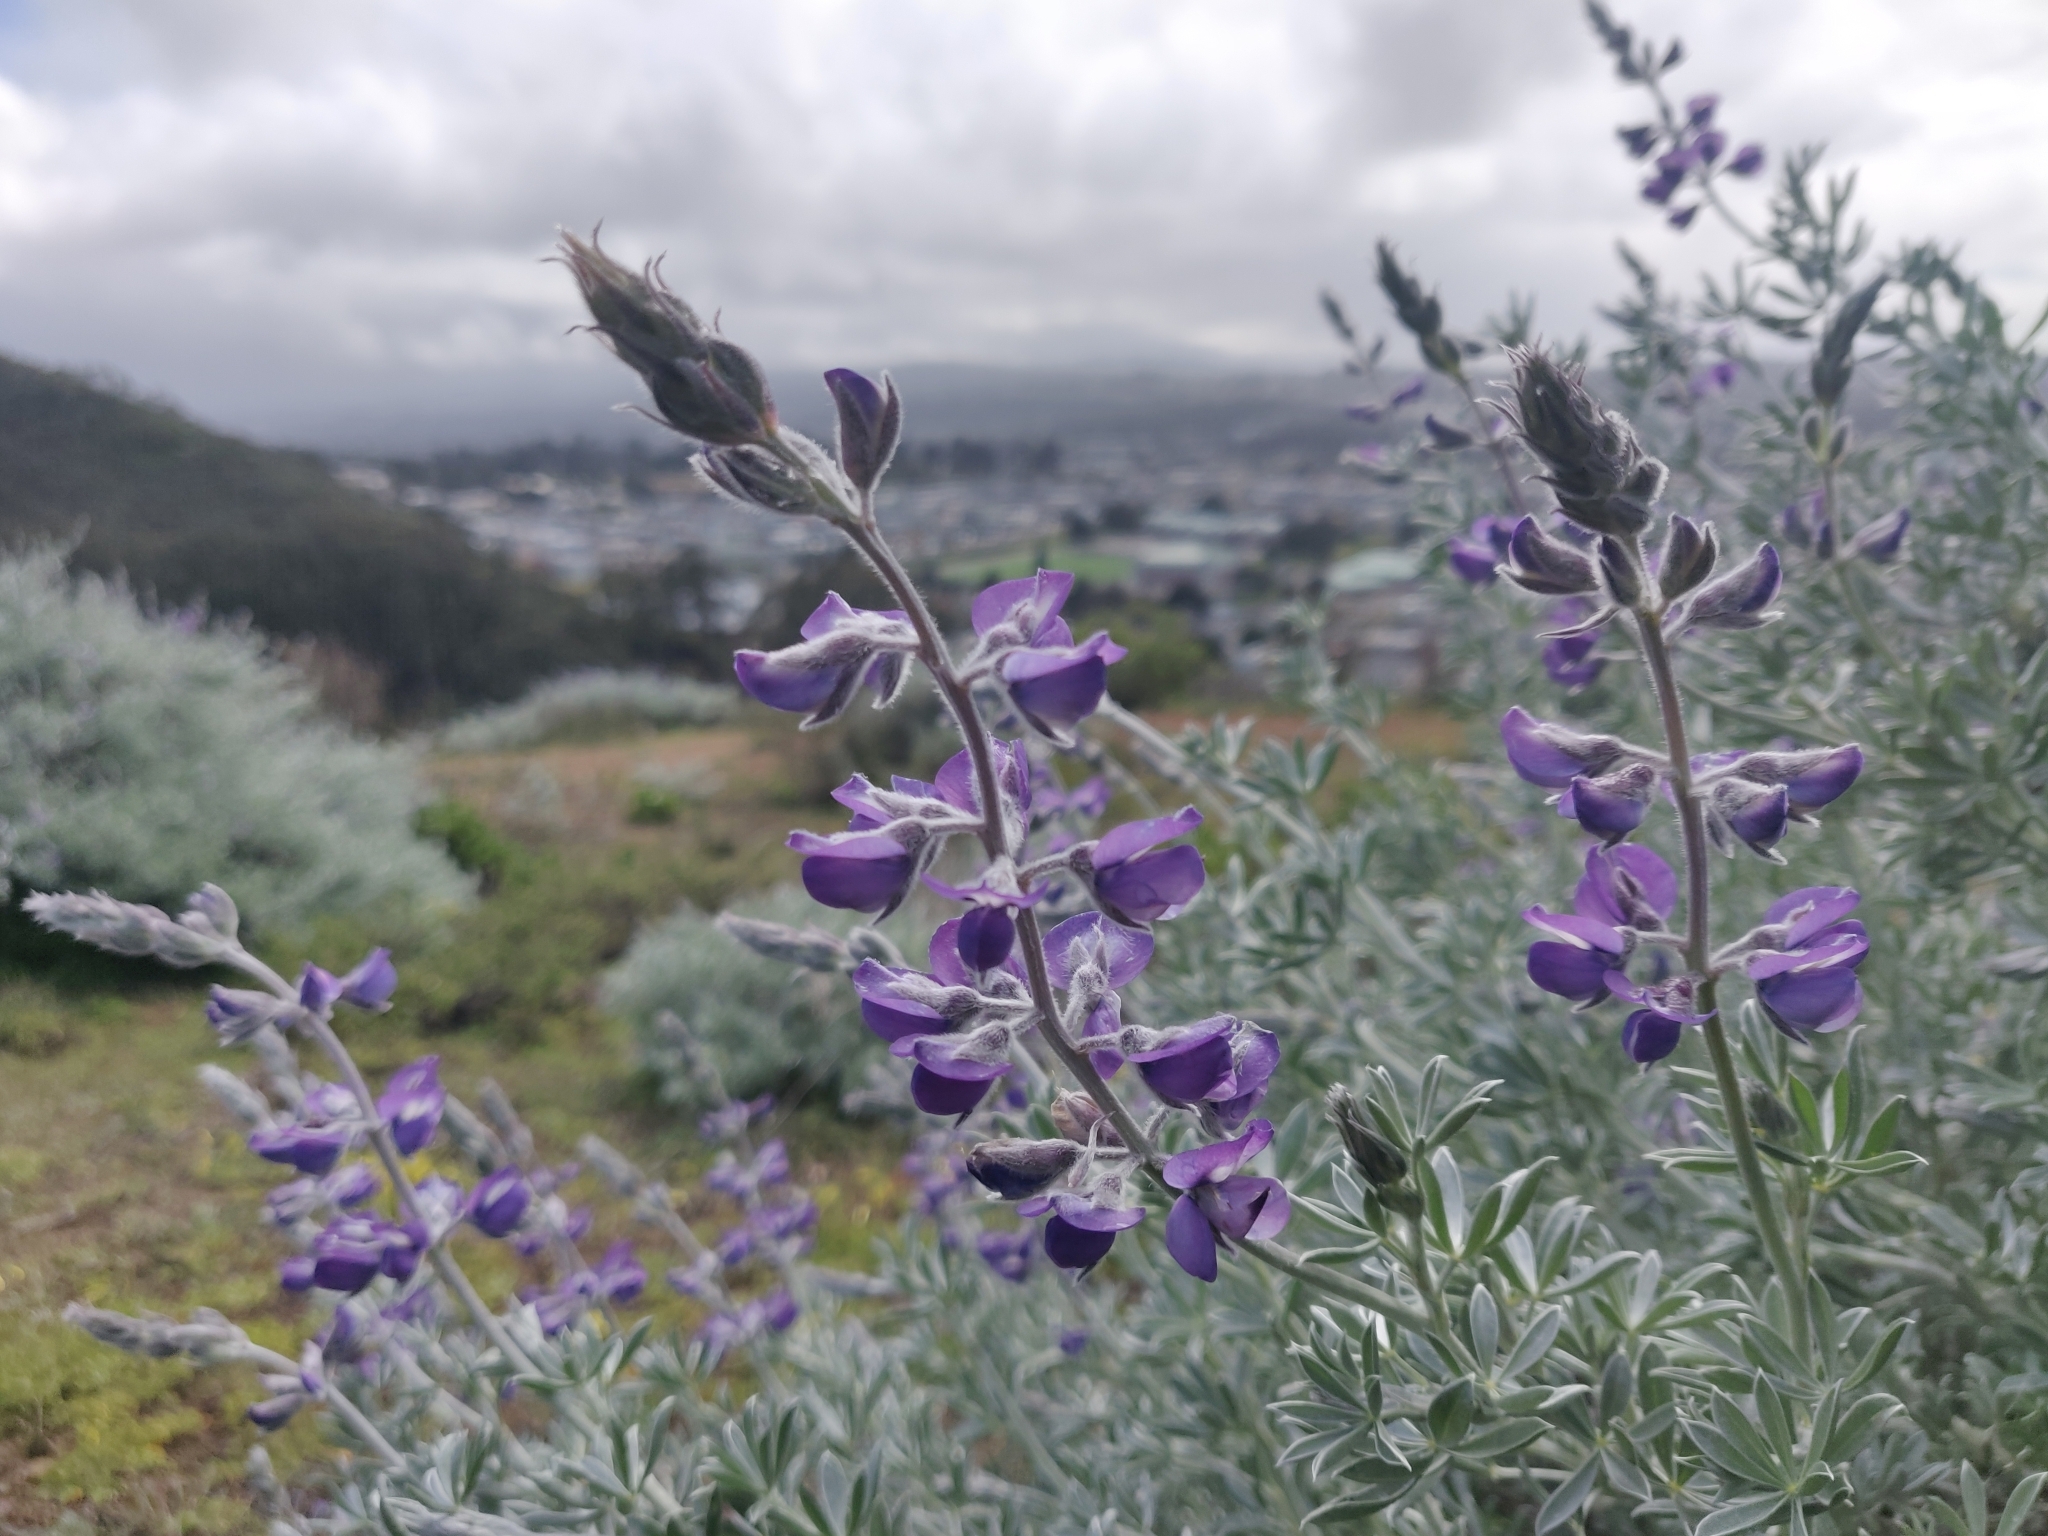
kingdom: Plantae
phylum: Tracheophyta
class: Magnoliopsida
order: Fabales
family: Fabaceae
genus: Lupinus
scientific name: Lupinus chamissonis
